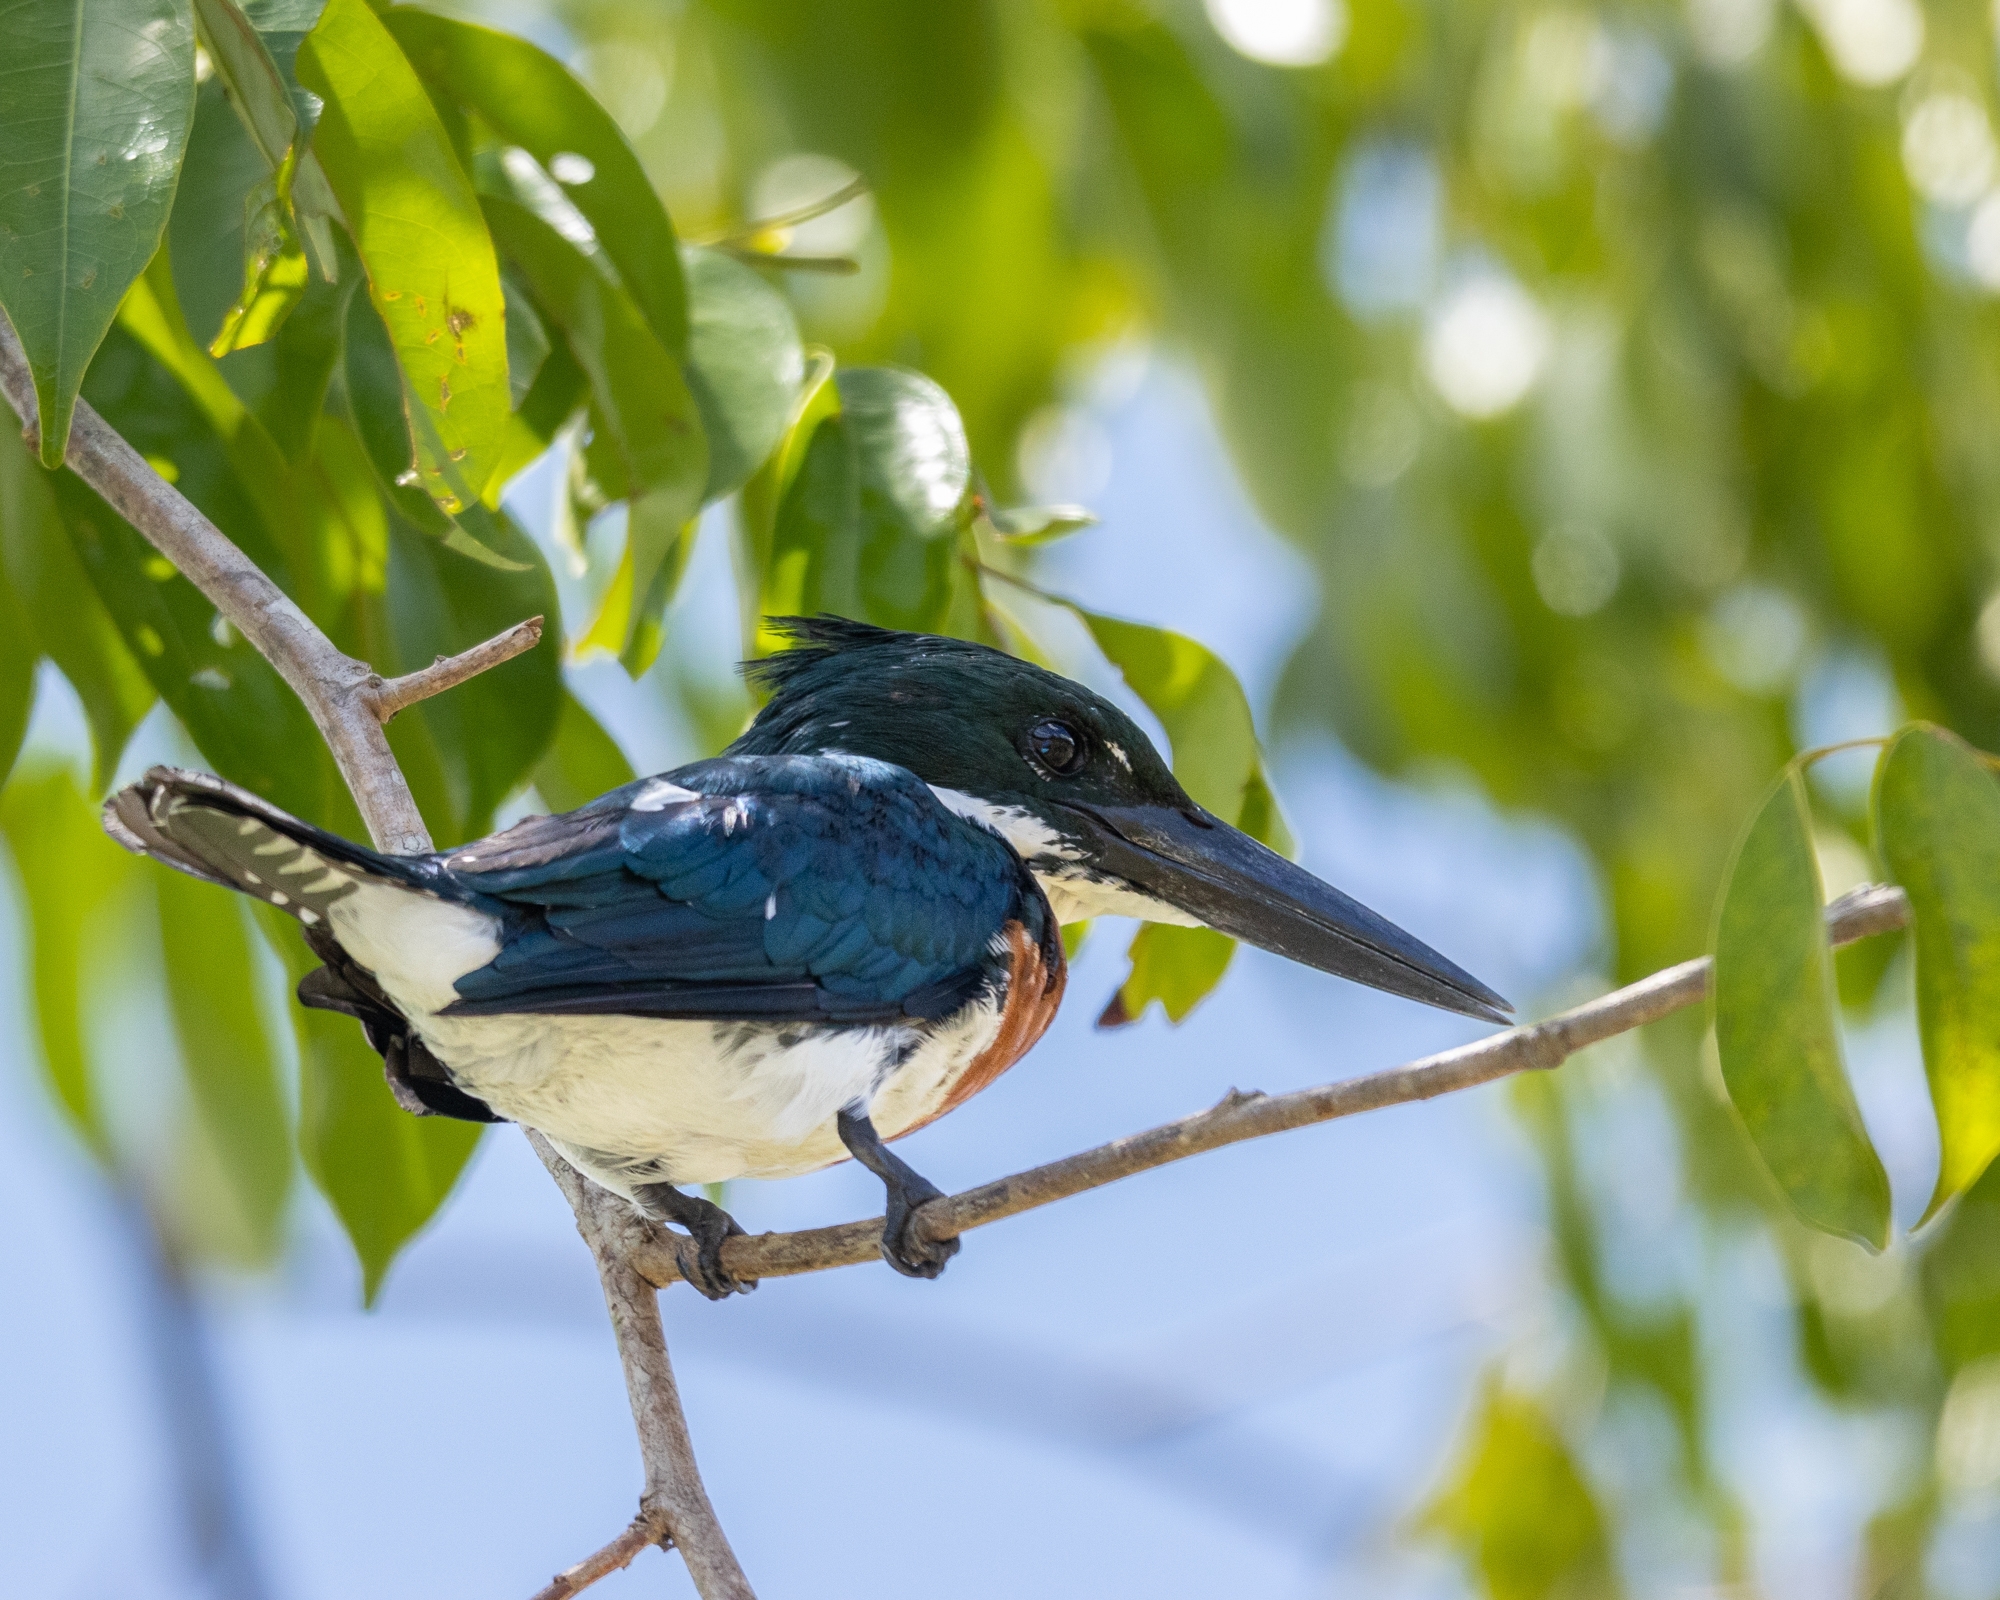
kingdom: Animalia
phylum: Chordata
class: Aves
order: Coraciiformes
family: Alcedinidae
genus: Chloroceryle
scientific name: Chloroceryle amazona
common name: Amazon kingfisher
